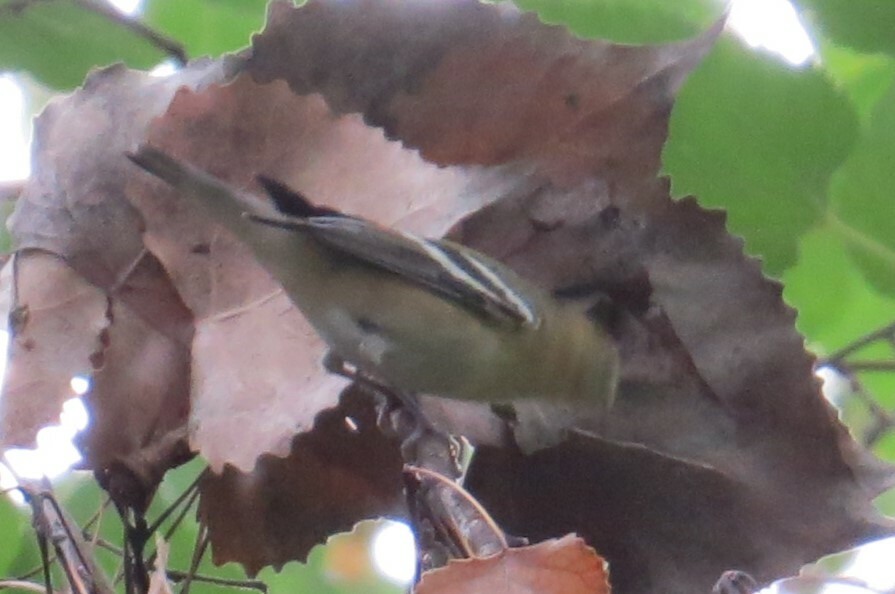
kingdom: Animalia
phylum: Chordata
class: Aves
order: Passeriformes
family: Parulidae
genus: Setophaga
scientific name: Setophaga castanea
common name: Bay-breasted warbler
